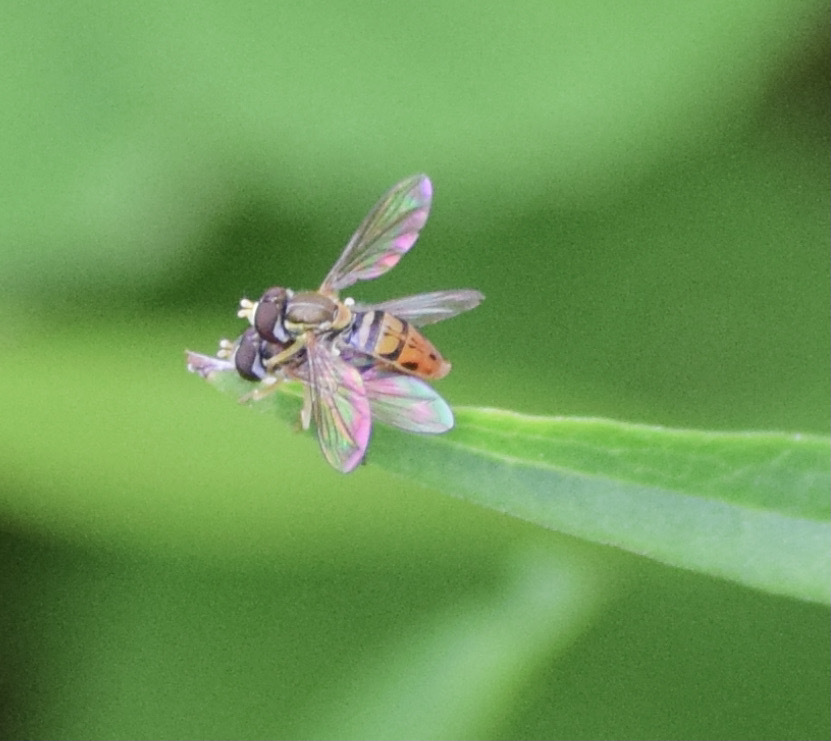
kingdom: Animalia
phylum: Arthropoda
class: Insecta
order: Diptera
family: Syrphidae
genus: Toxomerus
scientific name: Toxomerus marginatus
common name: Syrphid fly
